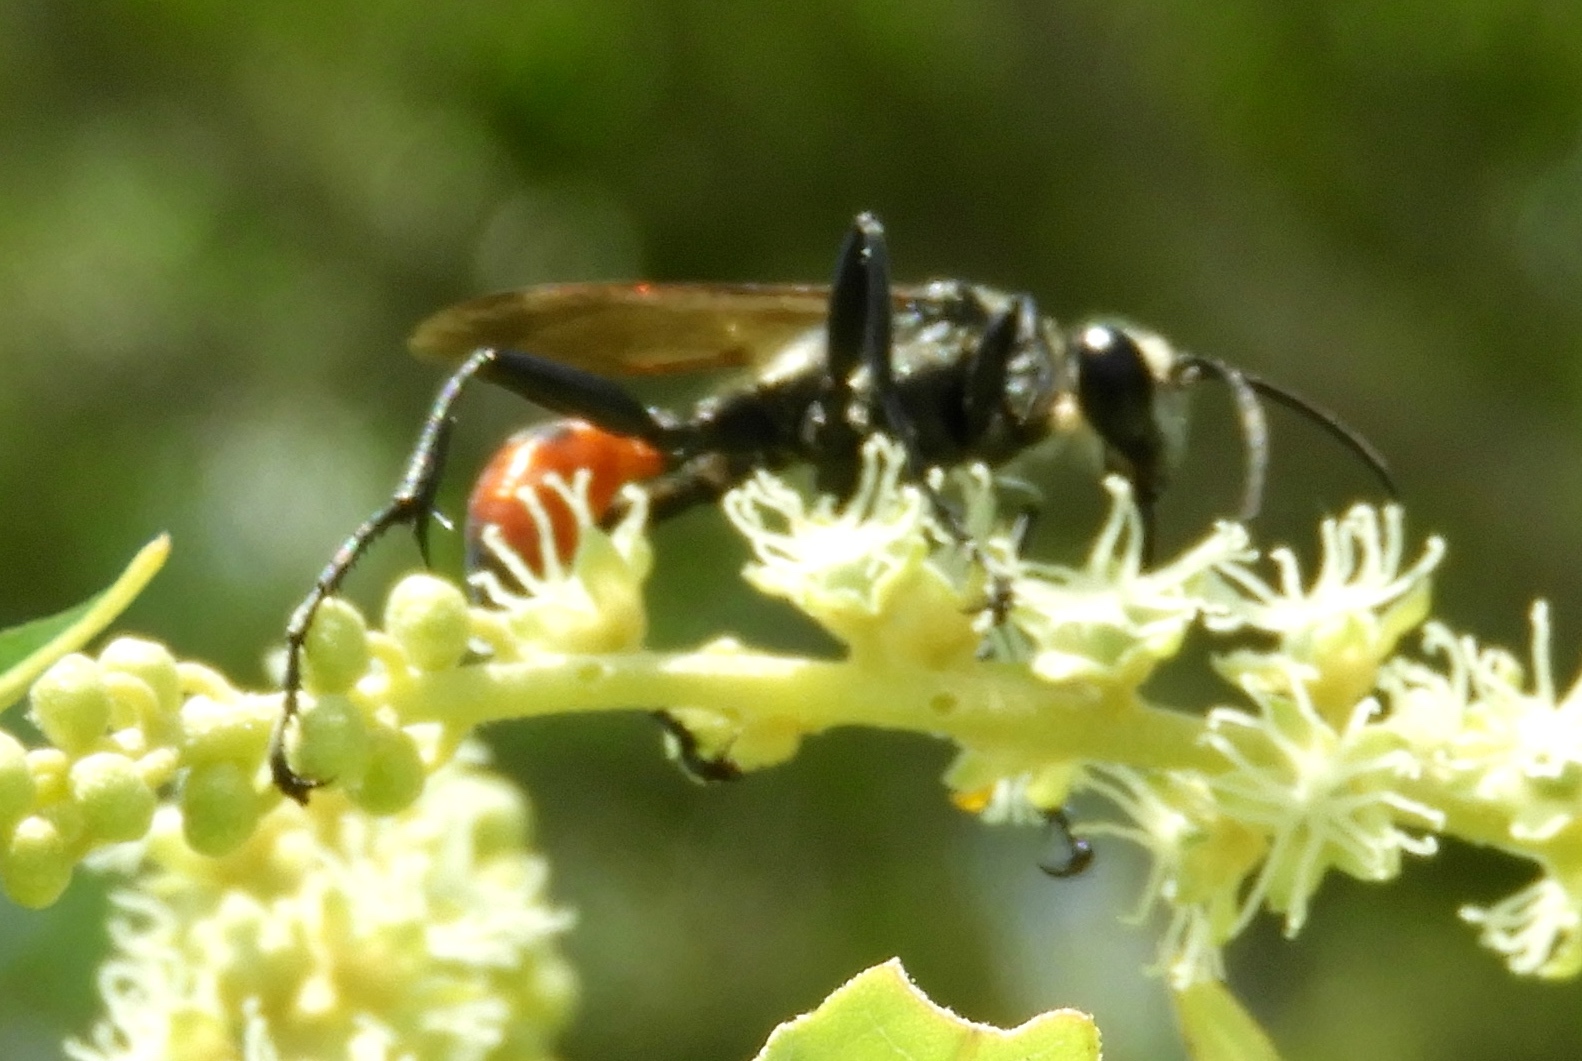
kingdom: Animalia
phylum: Arthropoda
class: Insecta
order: Hymenoptera
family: Sphecidae
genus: Prionyx
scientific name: Prionyx
